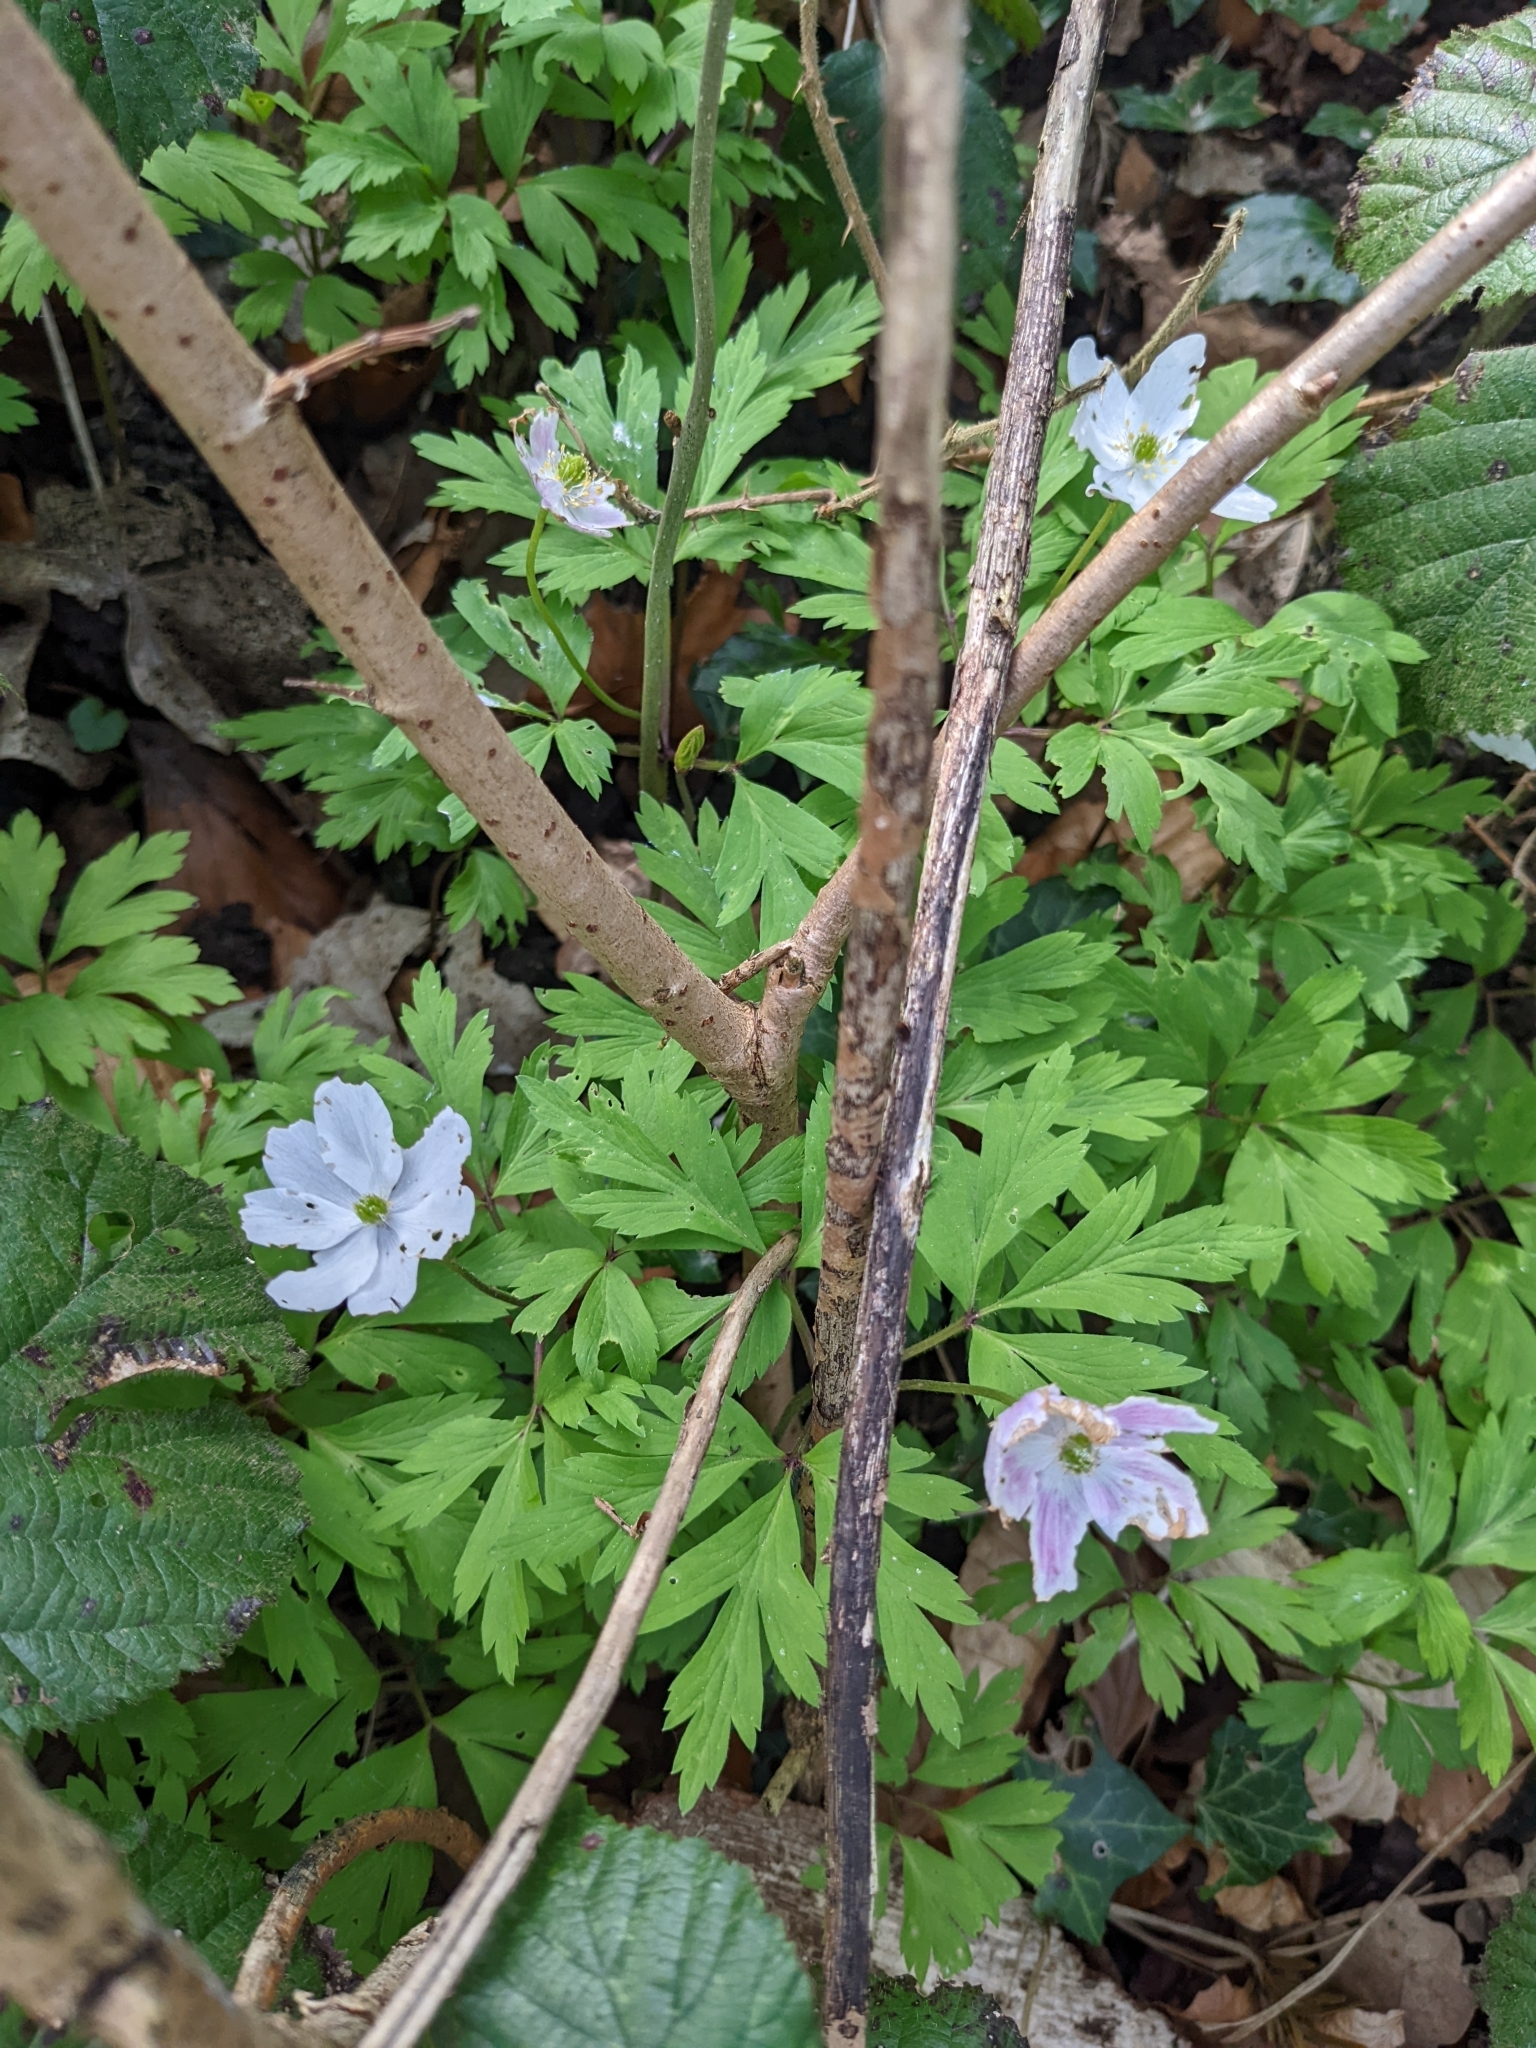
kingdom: Plantae
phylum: Tracheophyta
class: Magnoliopsida
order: Ranunculales
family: Ranunculaceae
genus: Anemone
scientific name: Anemone nemorosa
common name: Wood anemone
